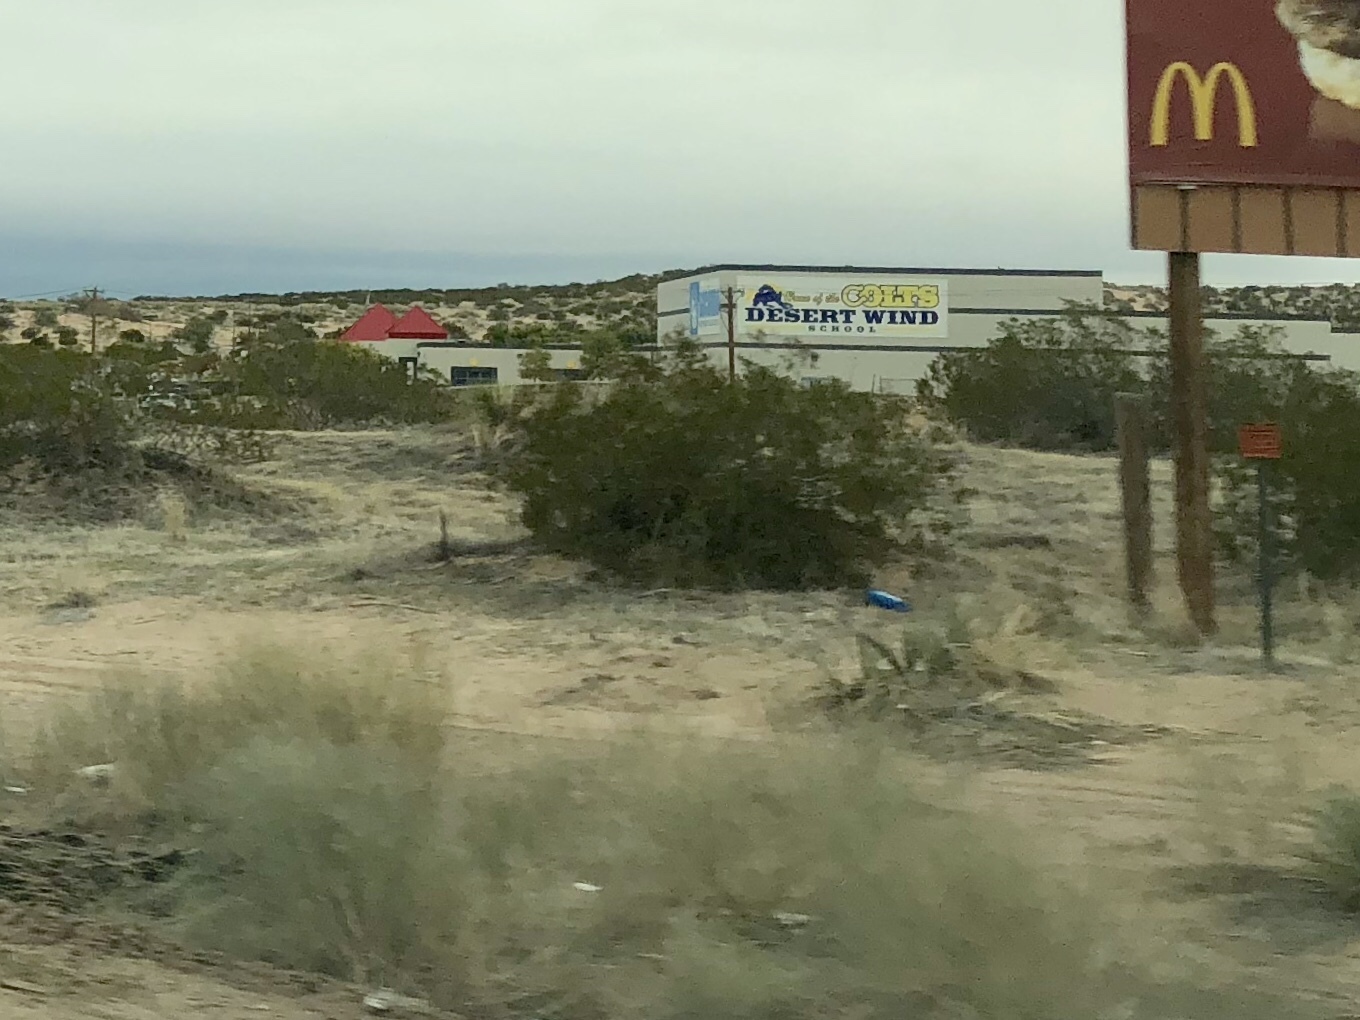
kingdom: Plantae
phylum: Tracheophyta
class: Magnoliopsida
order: Zygophyllales
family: Zygophyllaceae
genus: Larrea
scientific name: Larrea tridentata
